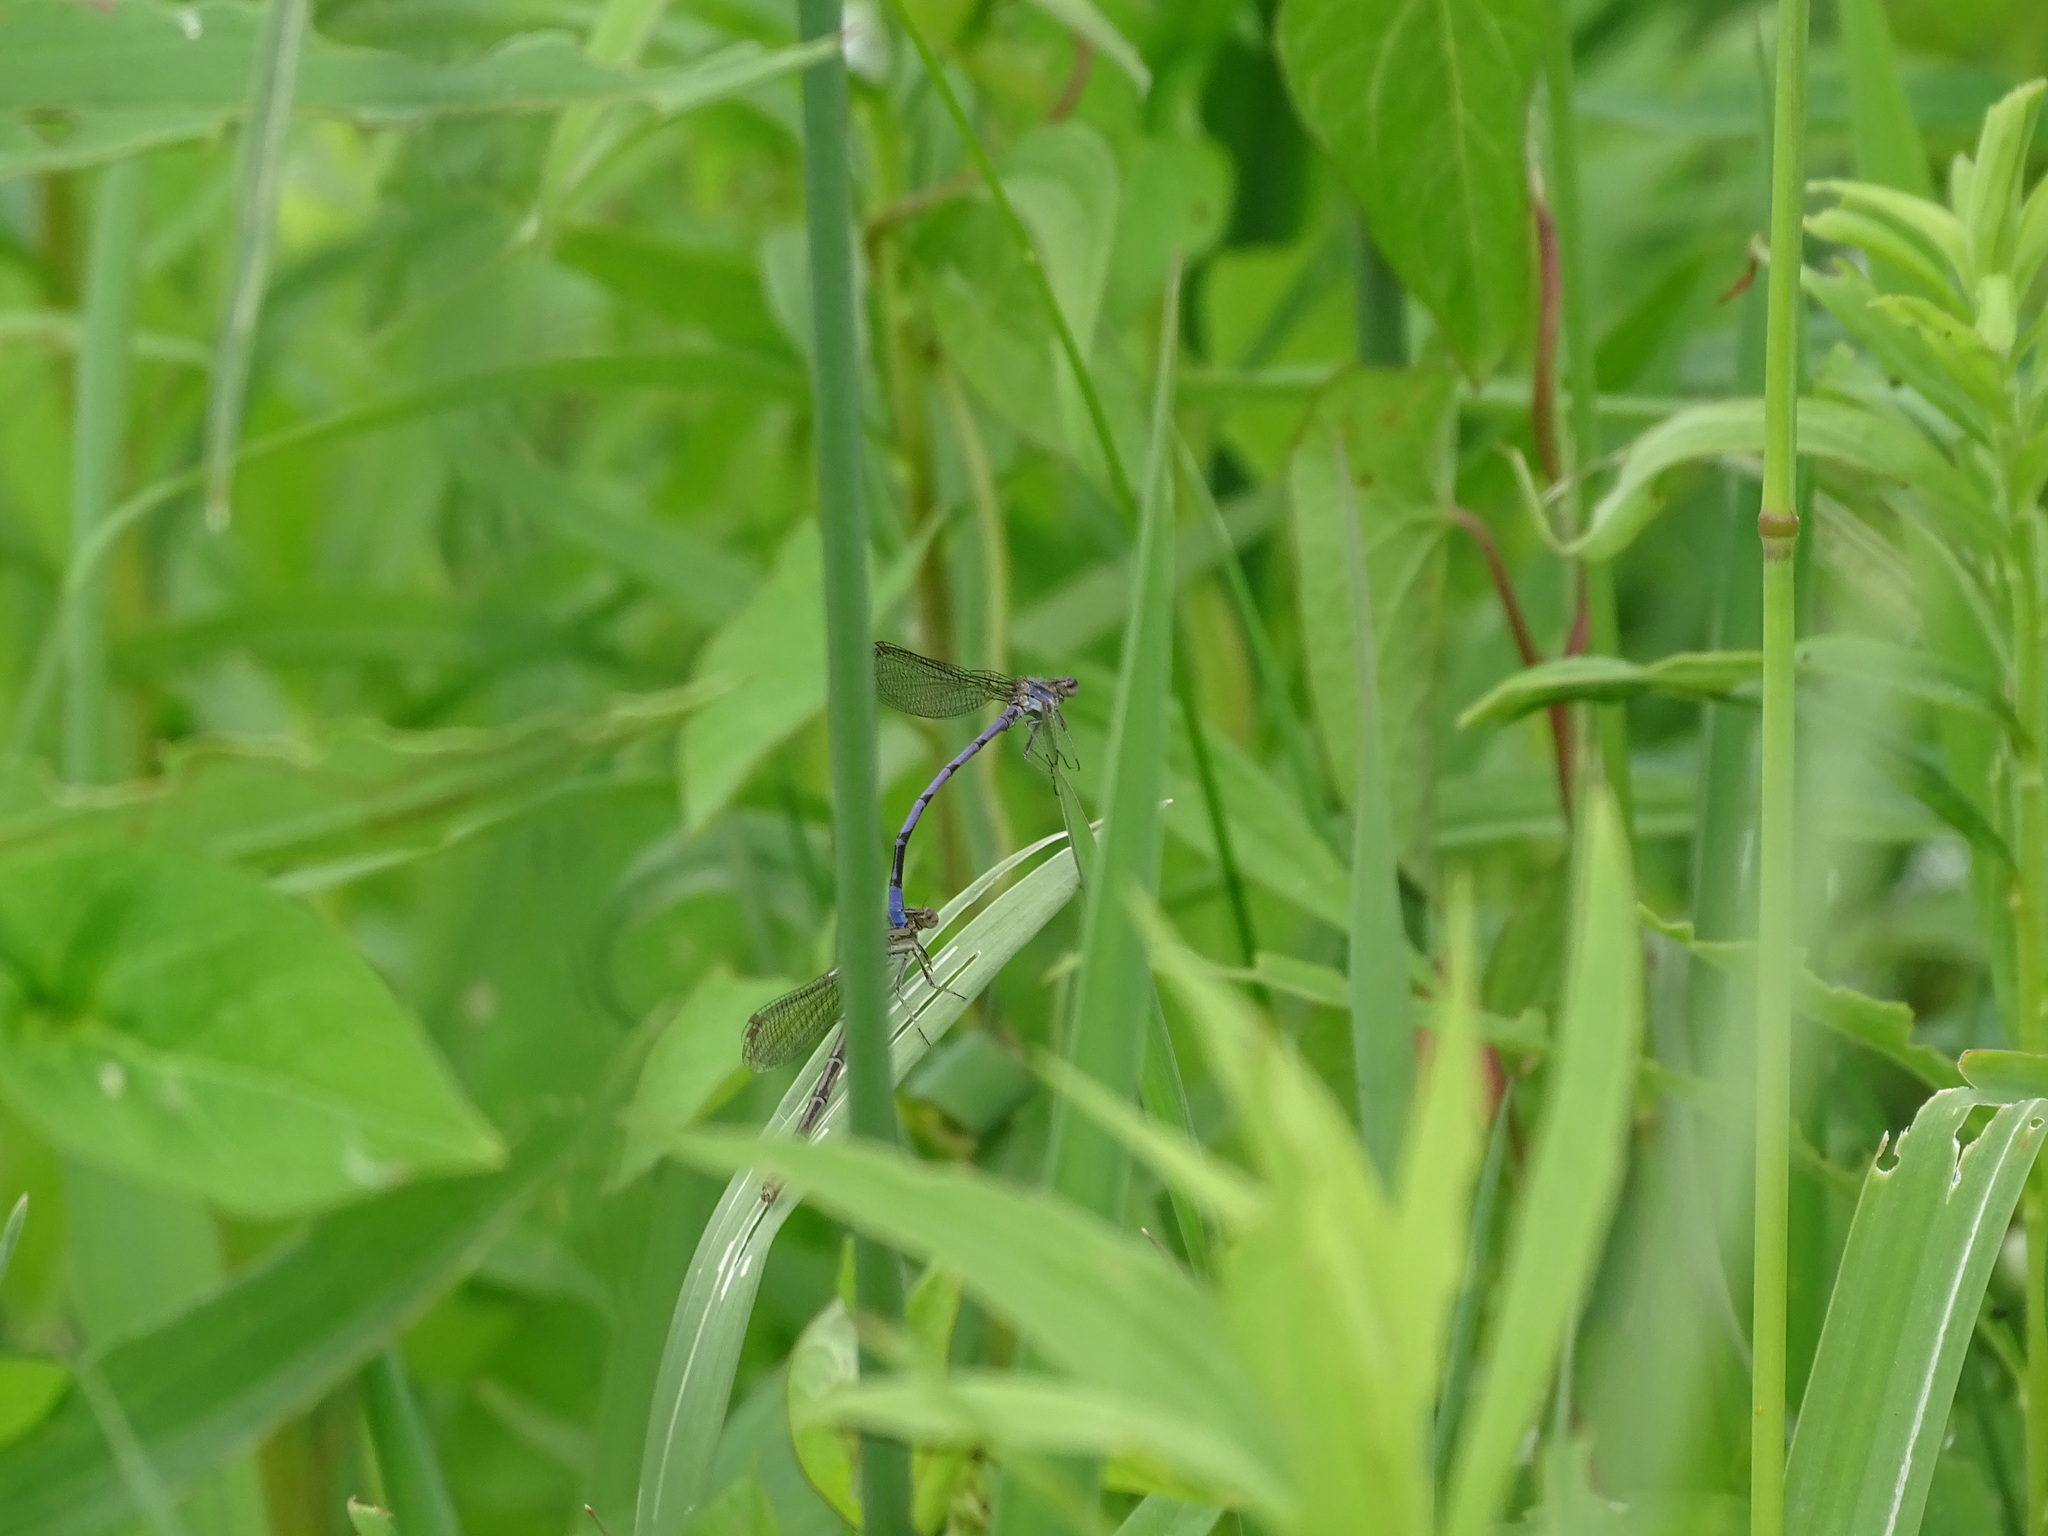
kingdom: Animalia
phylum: Arthropoda
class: Insecta
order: Odonata
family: Coenagrionidae
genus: Argia
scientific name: Argia fumipennis
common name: Variable dancer
